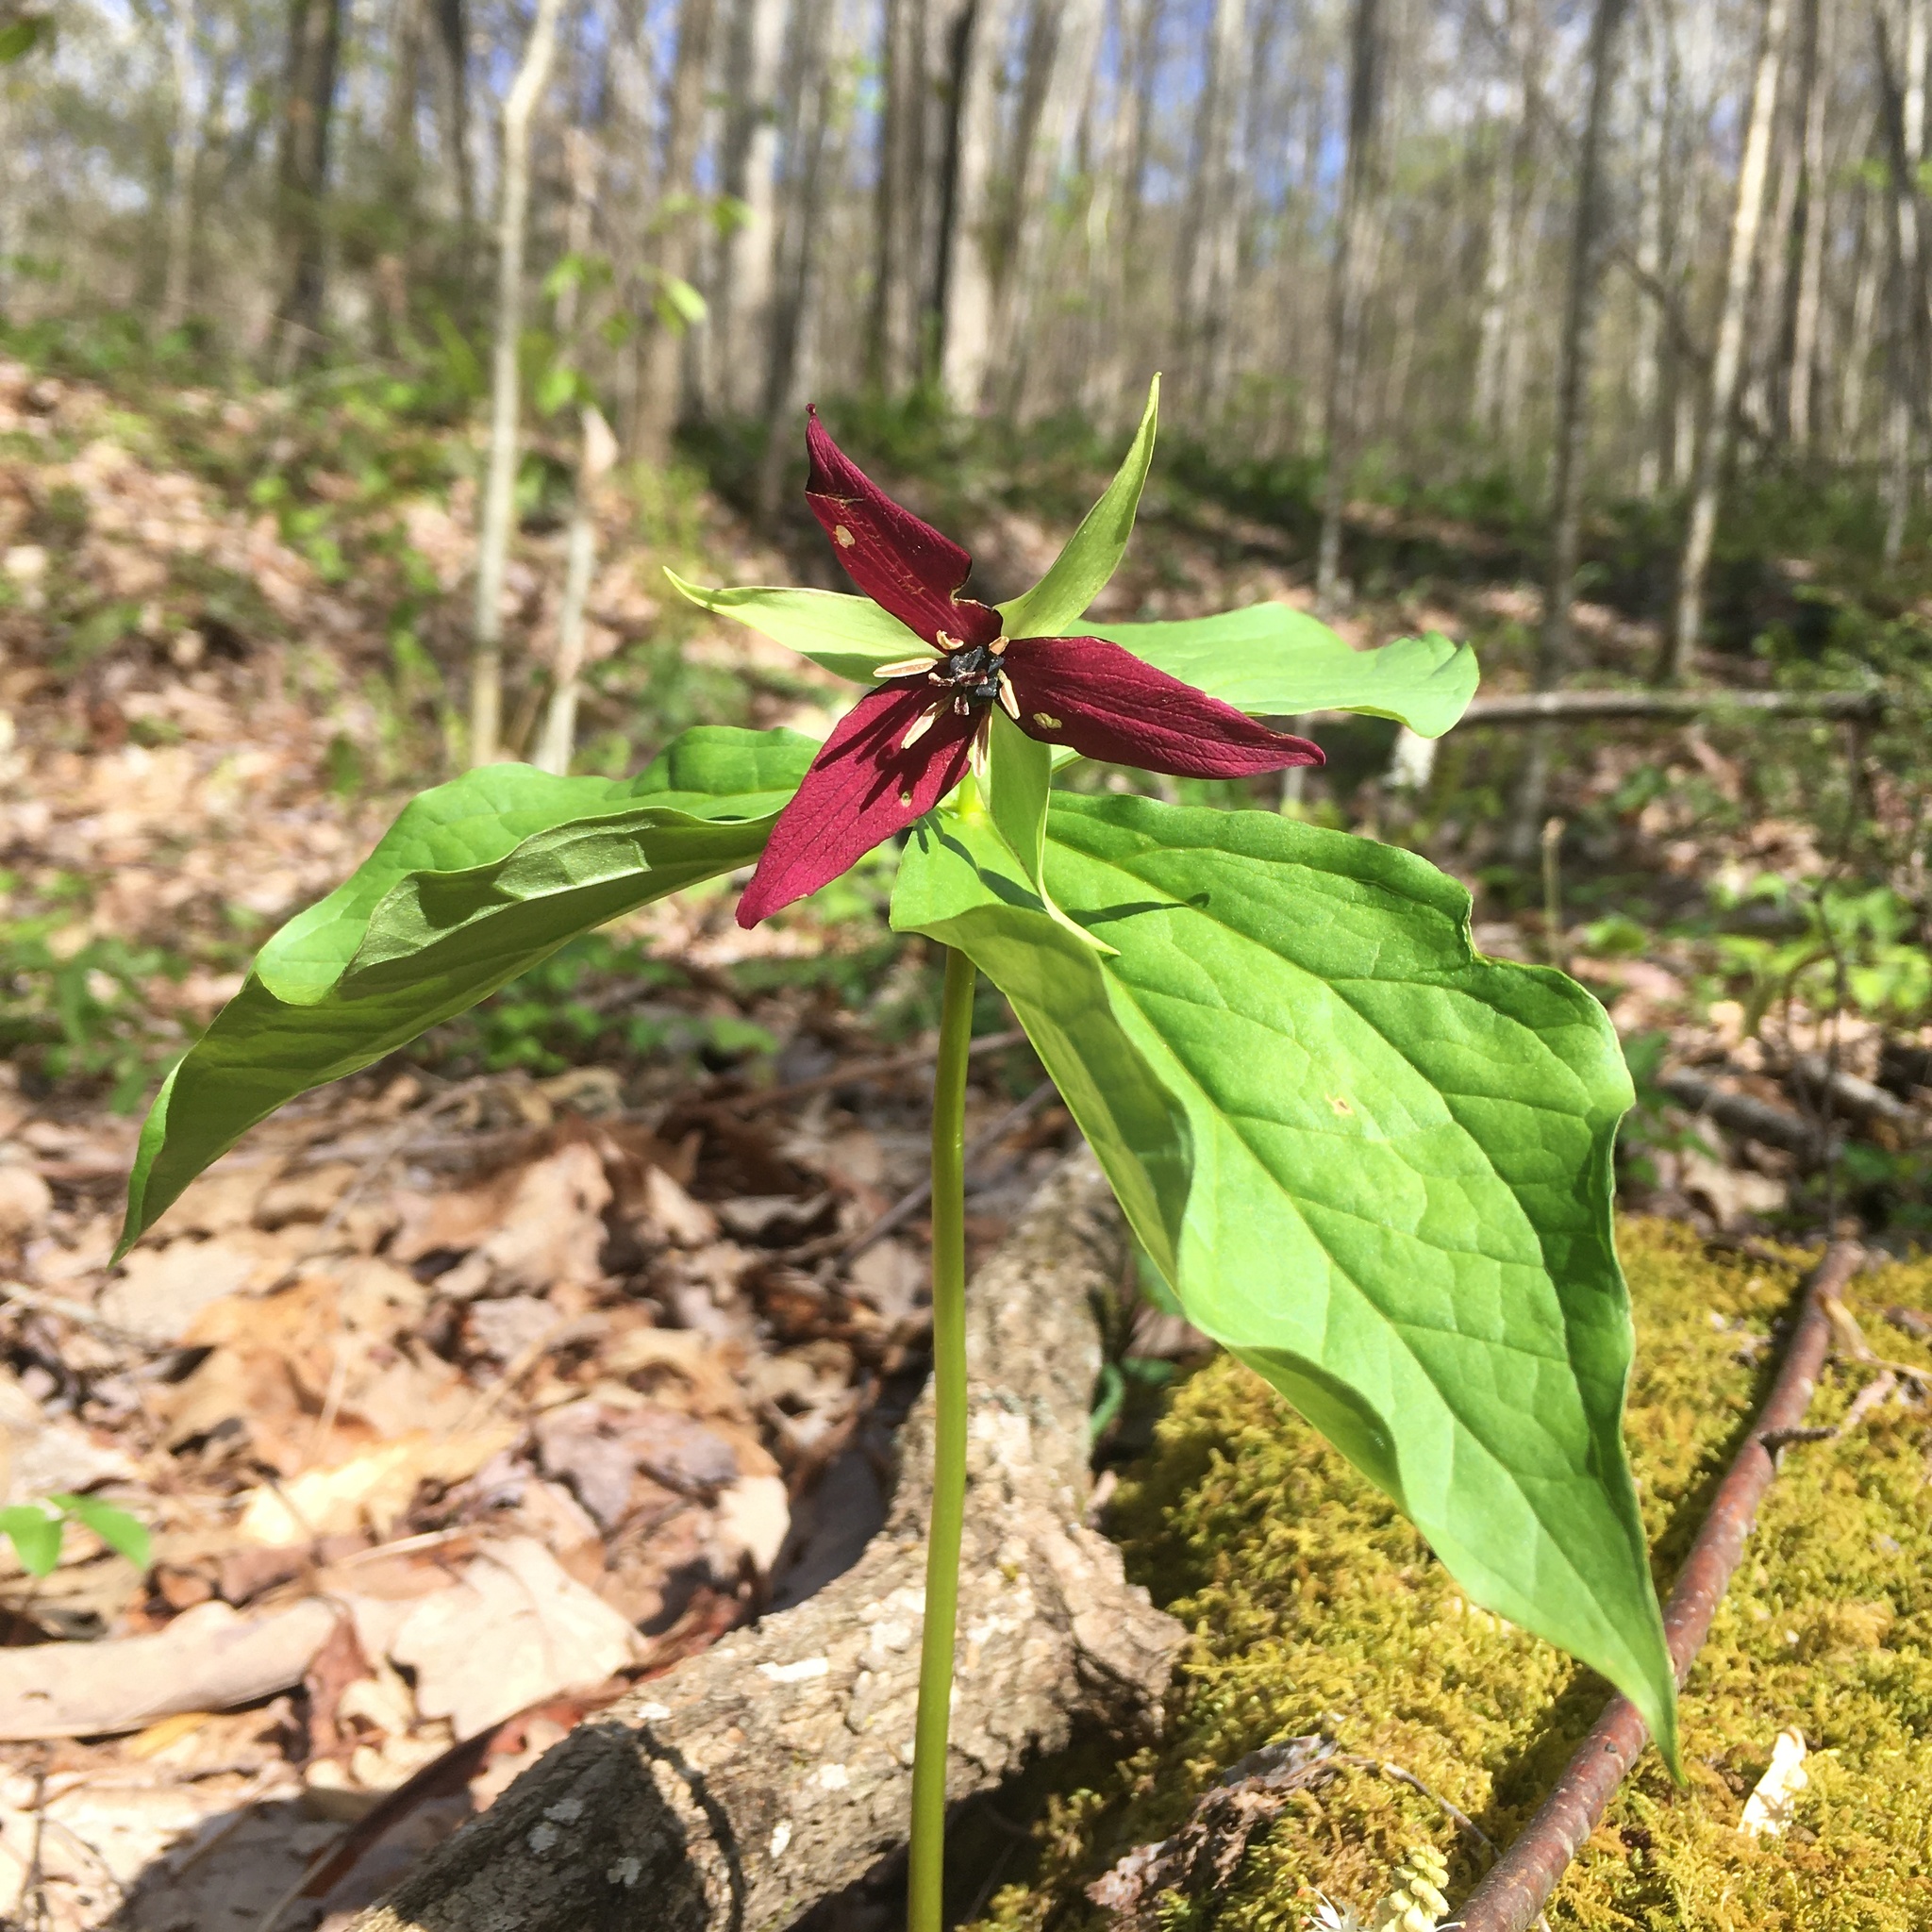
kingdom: Plantae
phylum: Tracheophyta
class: Liliopsida
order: Liliales
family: Melanthiaceae
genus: Trillium
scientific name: Trillium erectum
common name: Purple trillium
